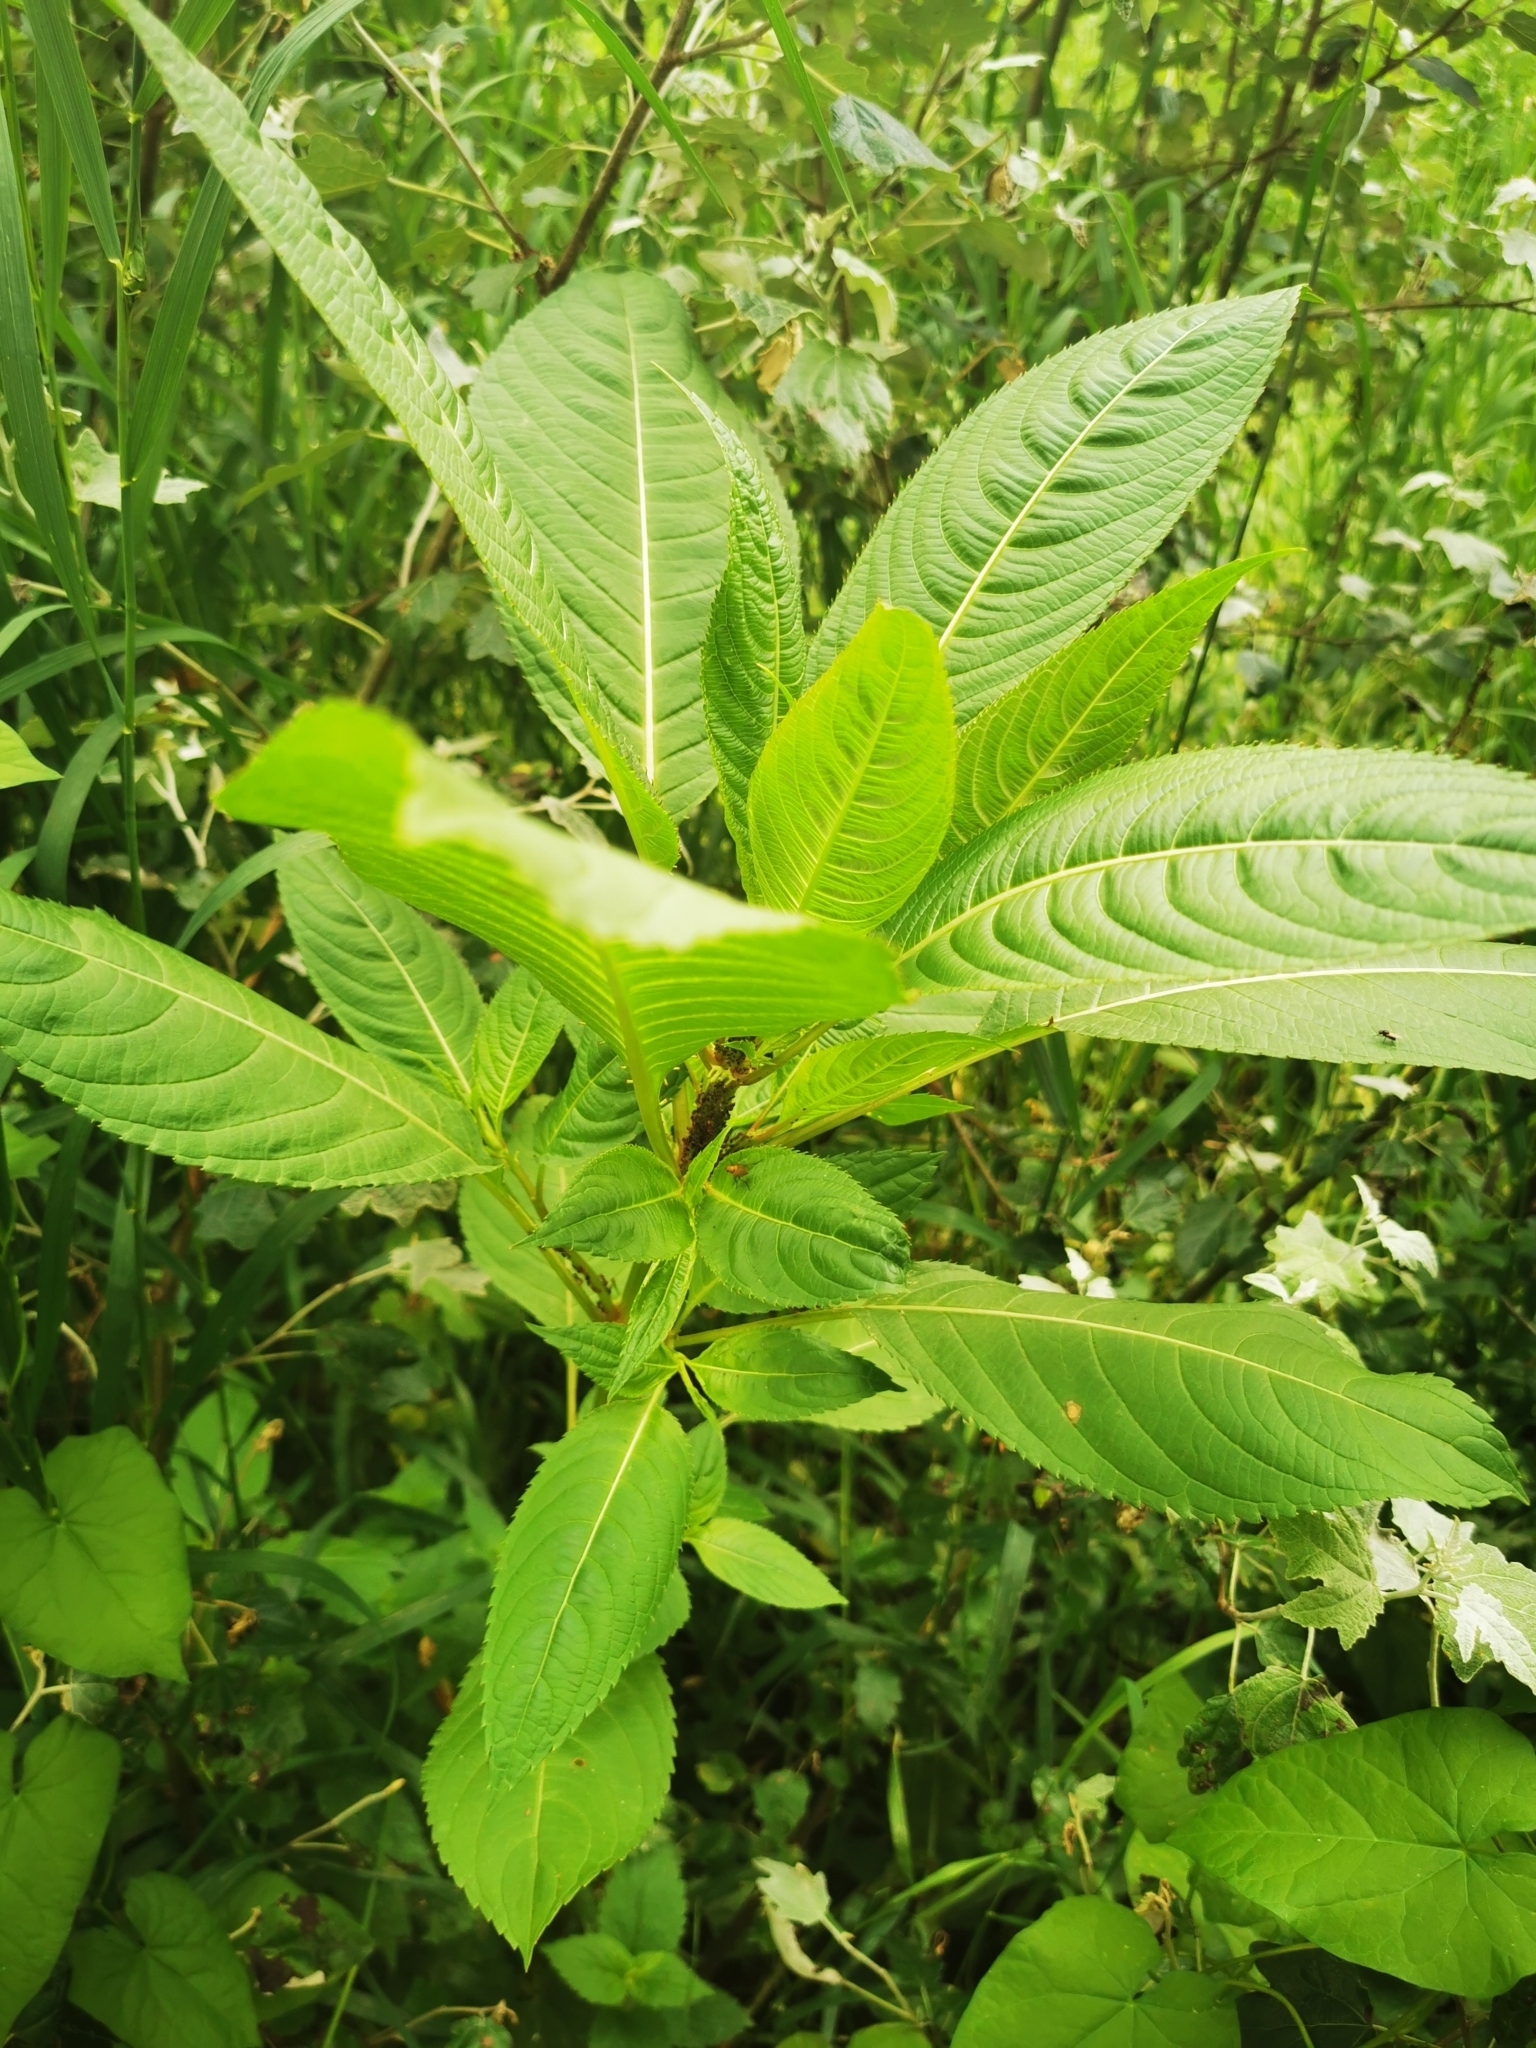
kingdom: Plantae
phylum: Tracheophyta
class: Magnoliopsida
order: Ericales
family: Balsaminaceae
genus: Impatiens
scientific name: Impatiens glandulifera
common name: Himalayan balsam
